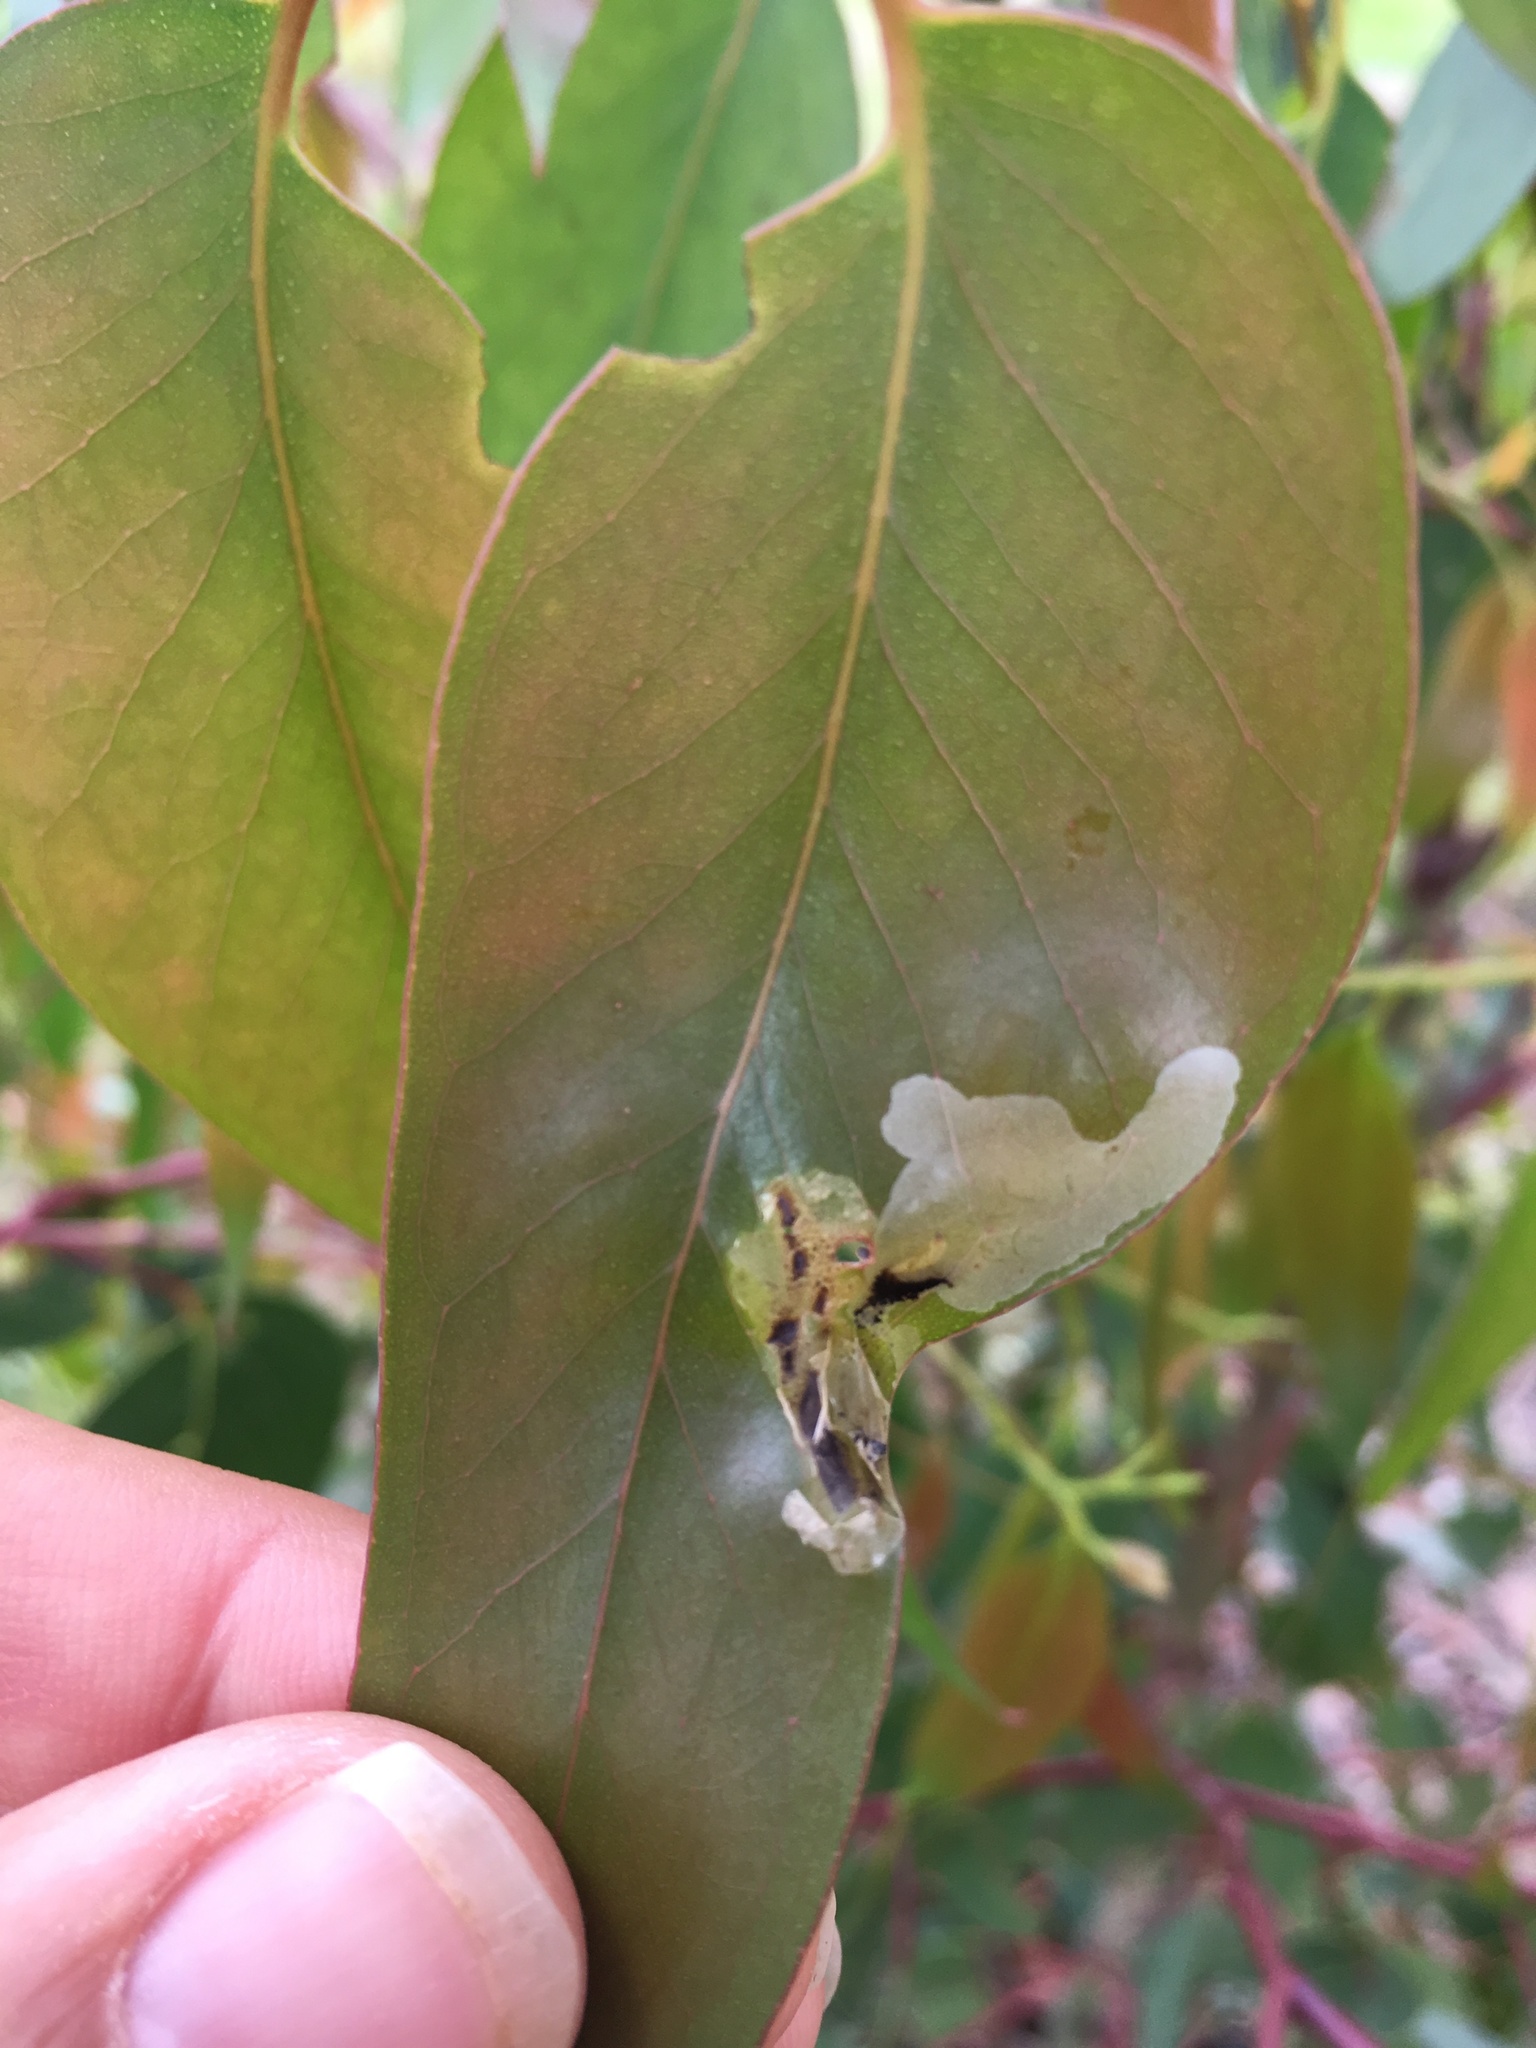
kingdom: Animalia
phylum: Arthropoda
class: Insecta
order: Hymenoptera
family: Pergidae
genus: Phylacteophaga
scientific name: Phylacteophaga froggatti
